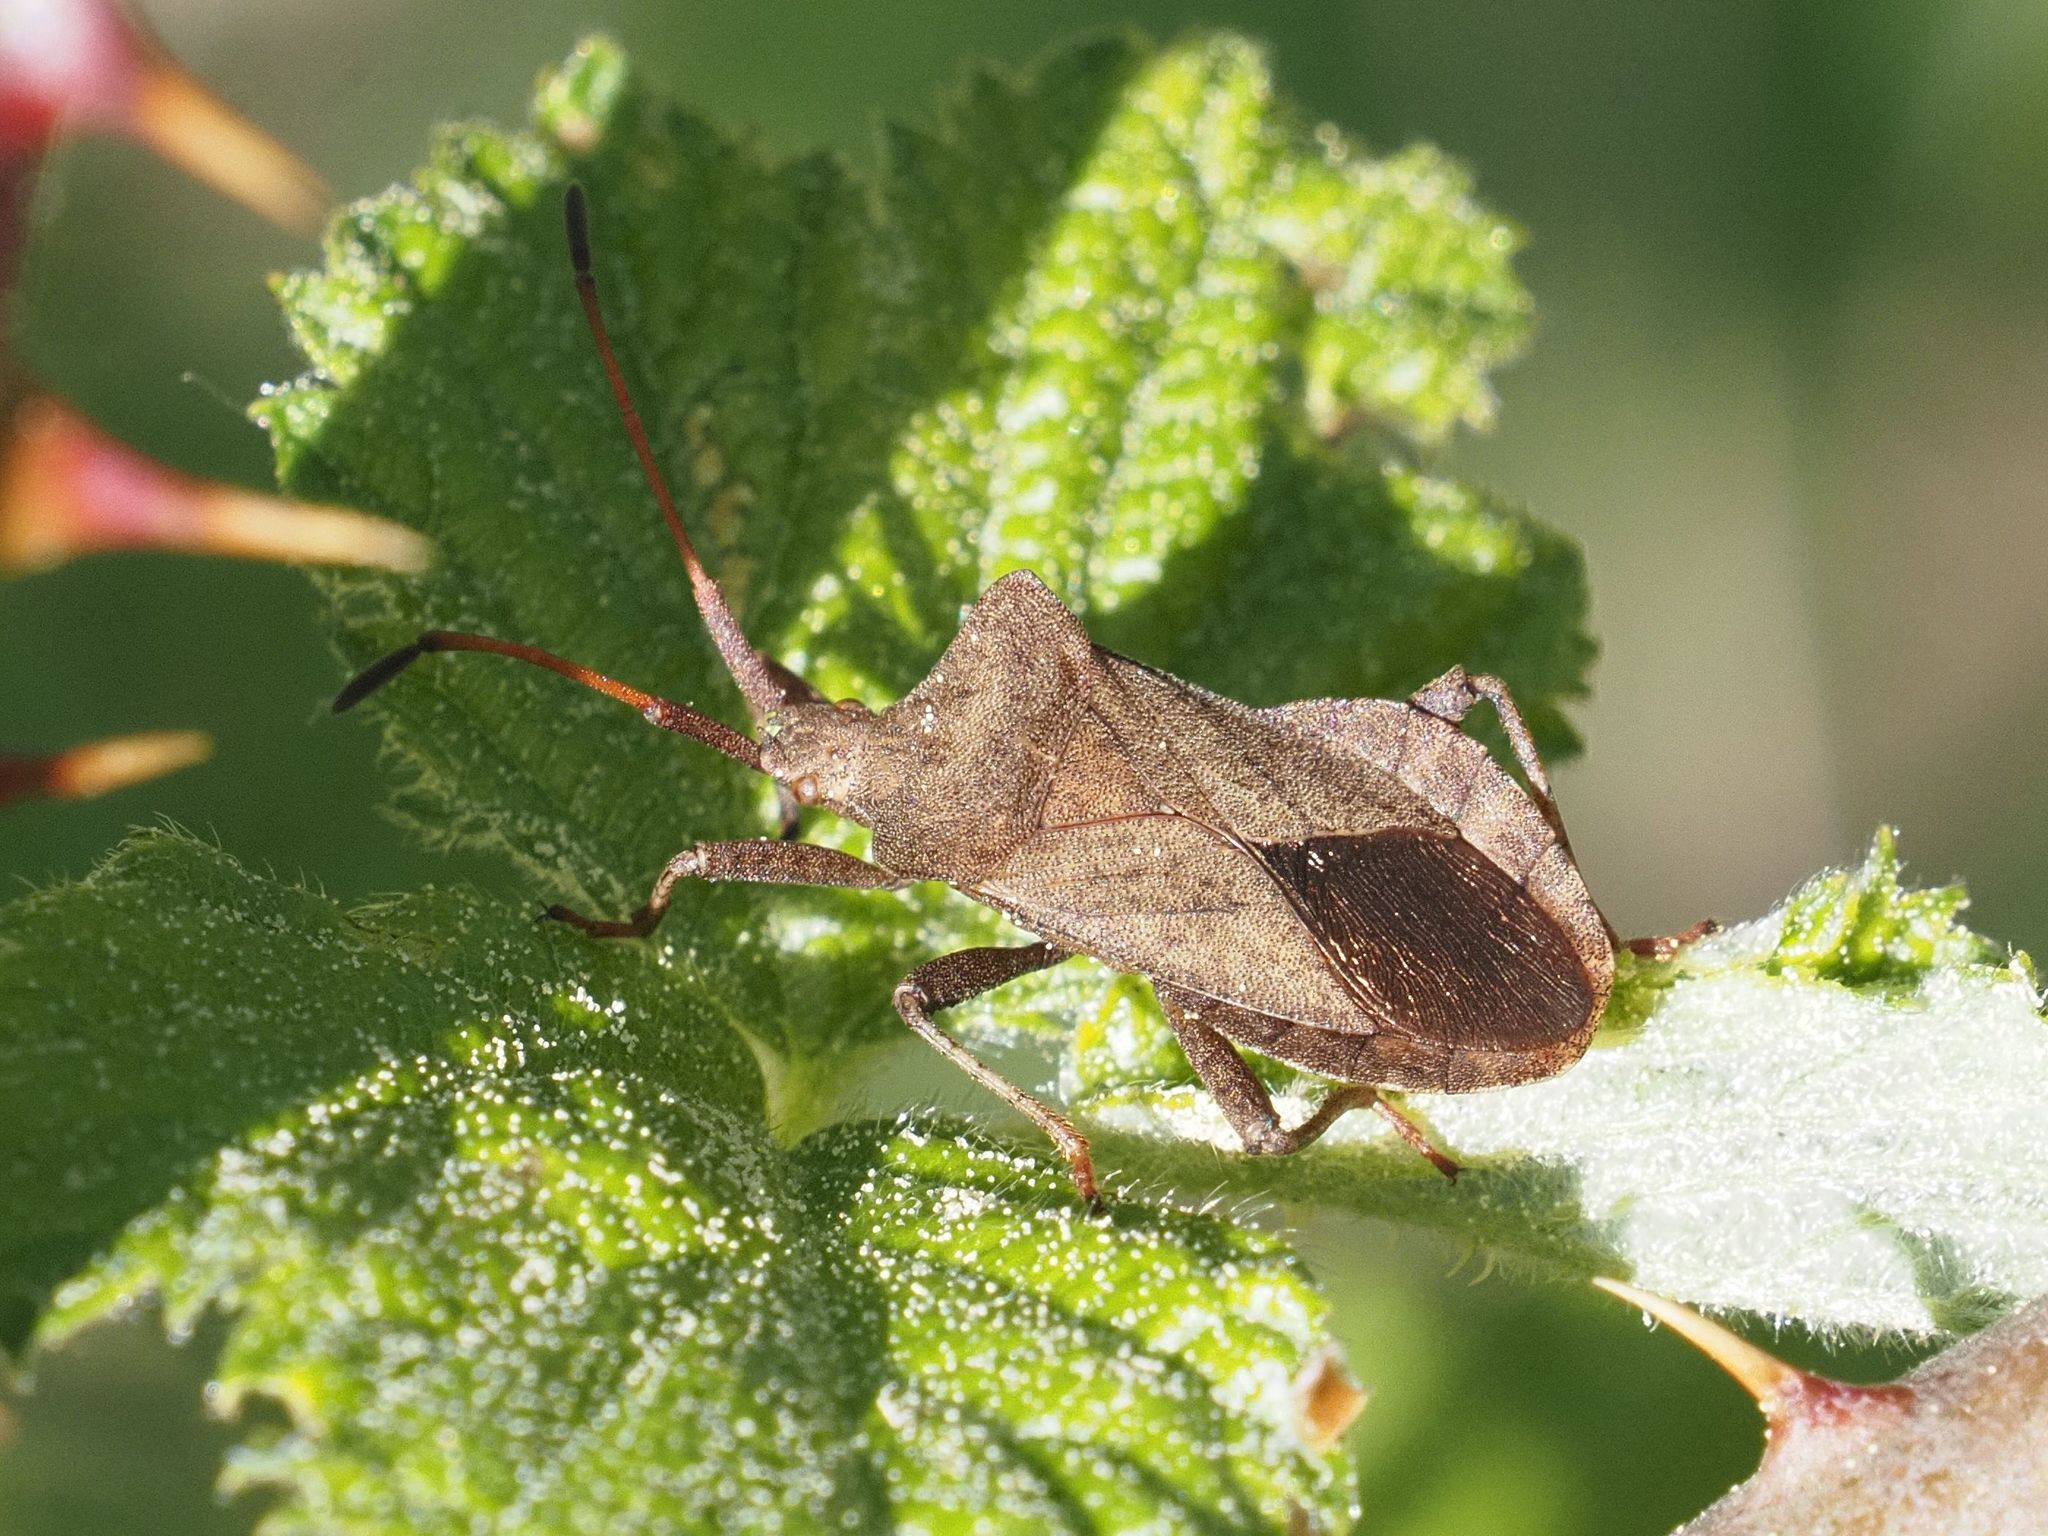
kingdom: Animalia
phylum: Arthropoda
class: Insecta
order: Hemiptera
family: Coreidae
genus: Coreus
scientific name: Coreus marginatus
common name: Dock bug
